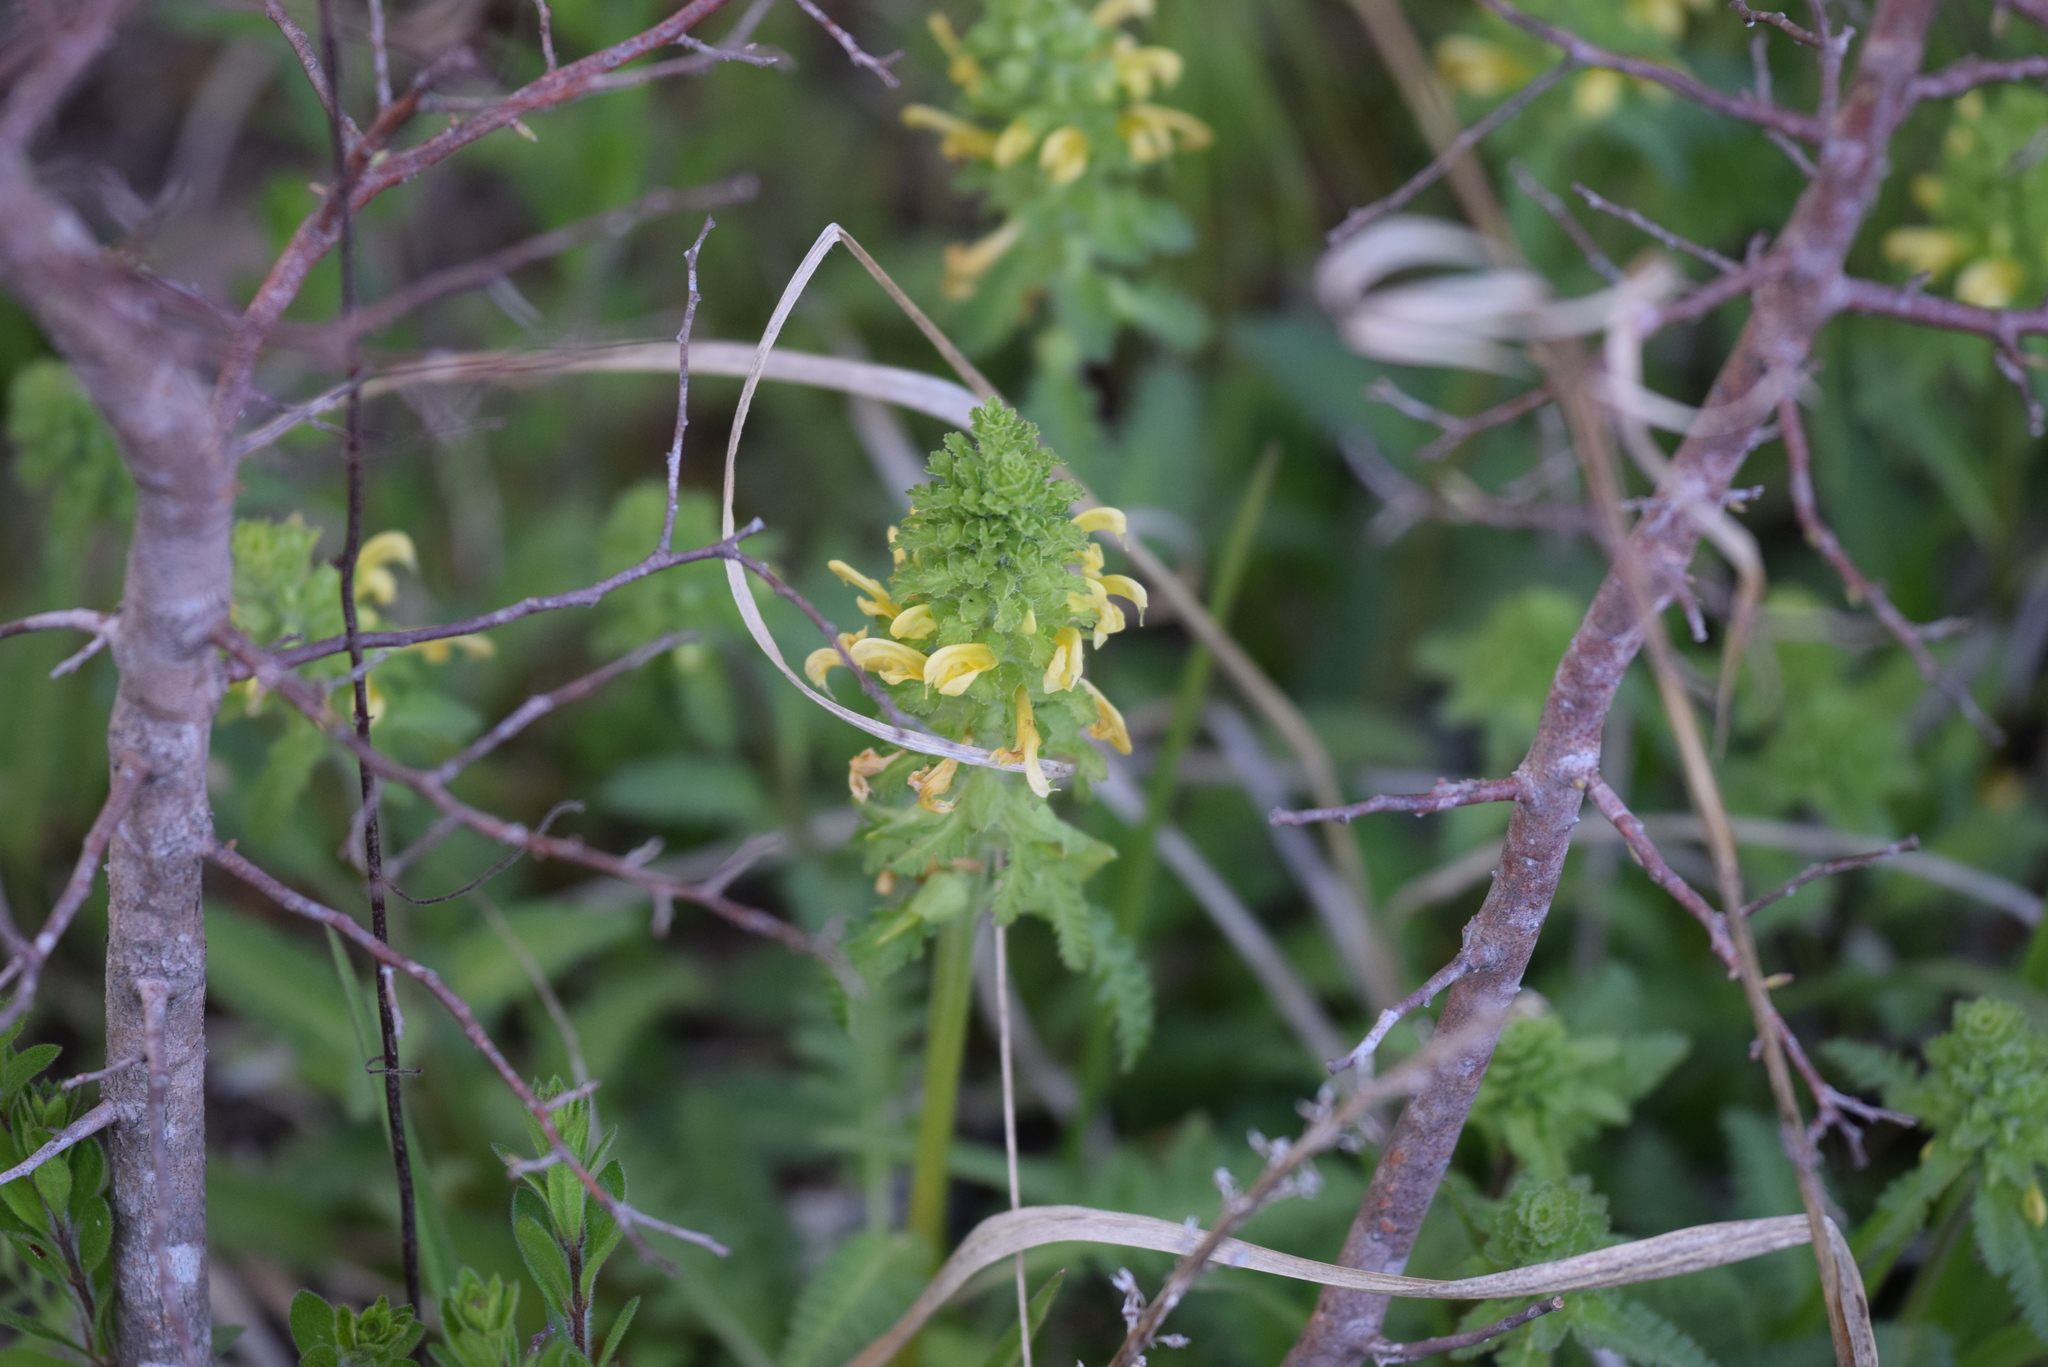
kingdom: Plantae
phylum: Tracheophyta
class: Magnoliopsida
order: Lamiales
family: Orobanchaceae
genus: Pedicularis
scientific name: Pedicularis canadensis
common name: Early lousewort
